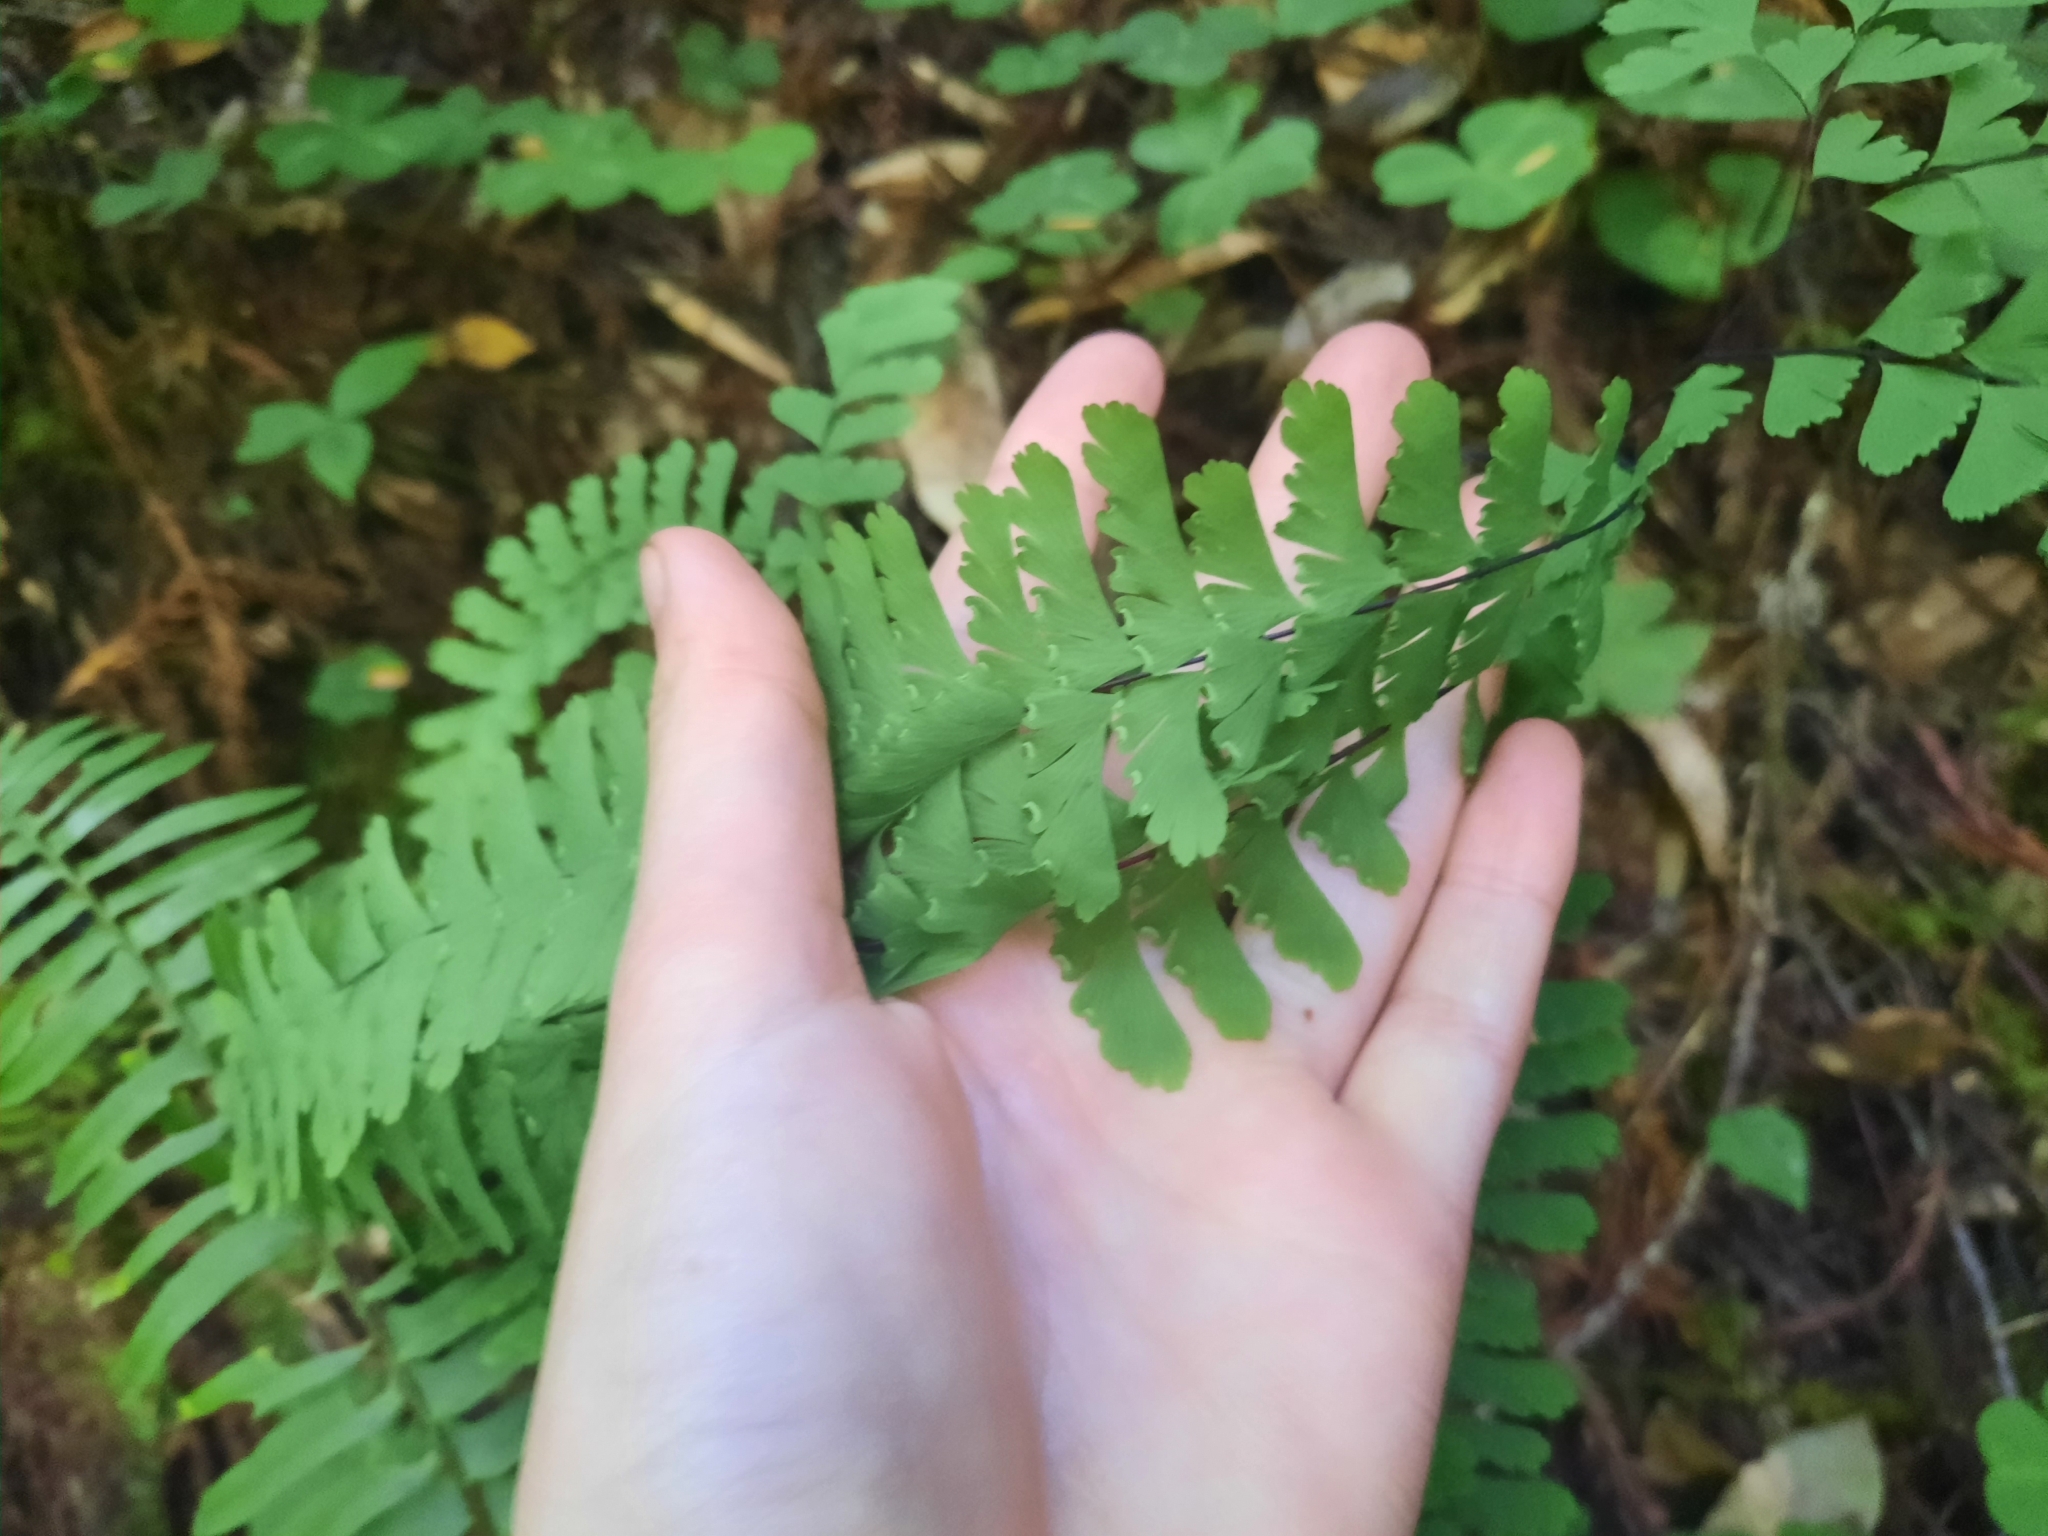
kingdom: Plantae
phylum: Tracheophyta
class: Polypodiopsida
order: Polypodiales
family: Pteridaceae
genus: Adiantum
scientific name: Adiantum aleuticum
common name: Aleutian maidenhair fern
